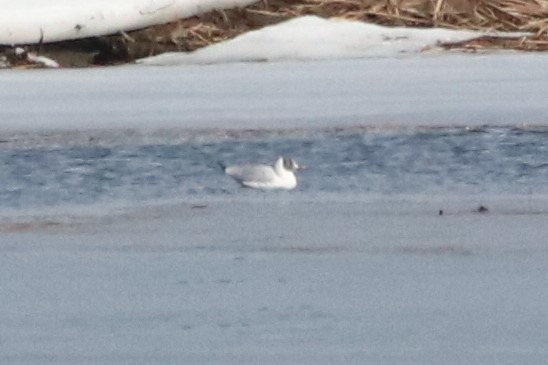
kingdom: Animalia
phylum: Chordata
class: Aves
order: Charadriiformes
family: Laridae
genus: Chroicocephalus
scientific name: Chroicocephalus ridibundus
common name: Black-headed gull
